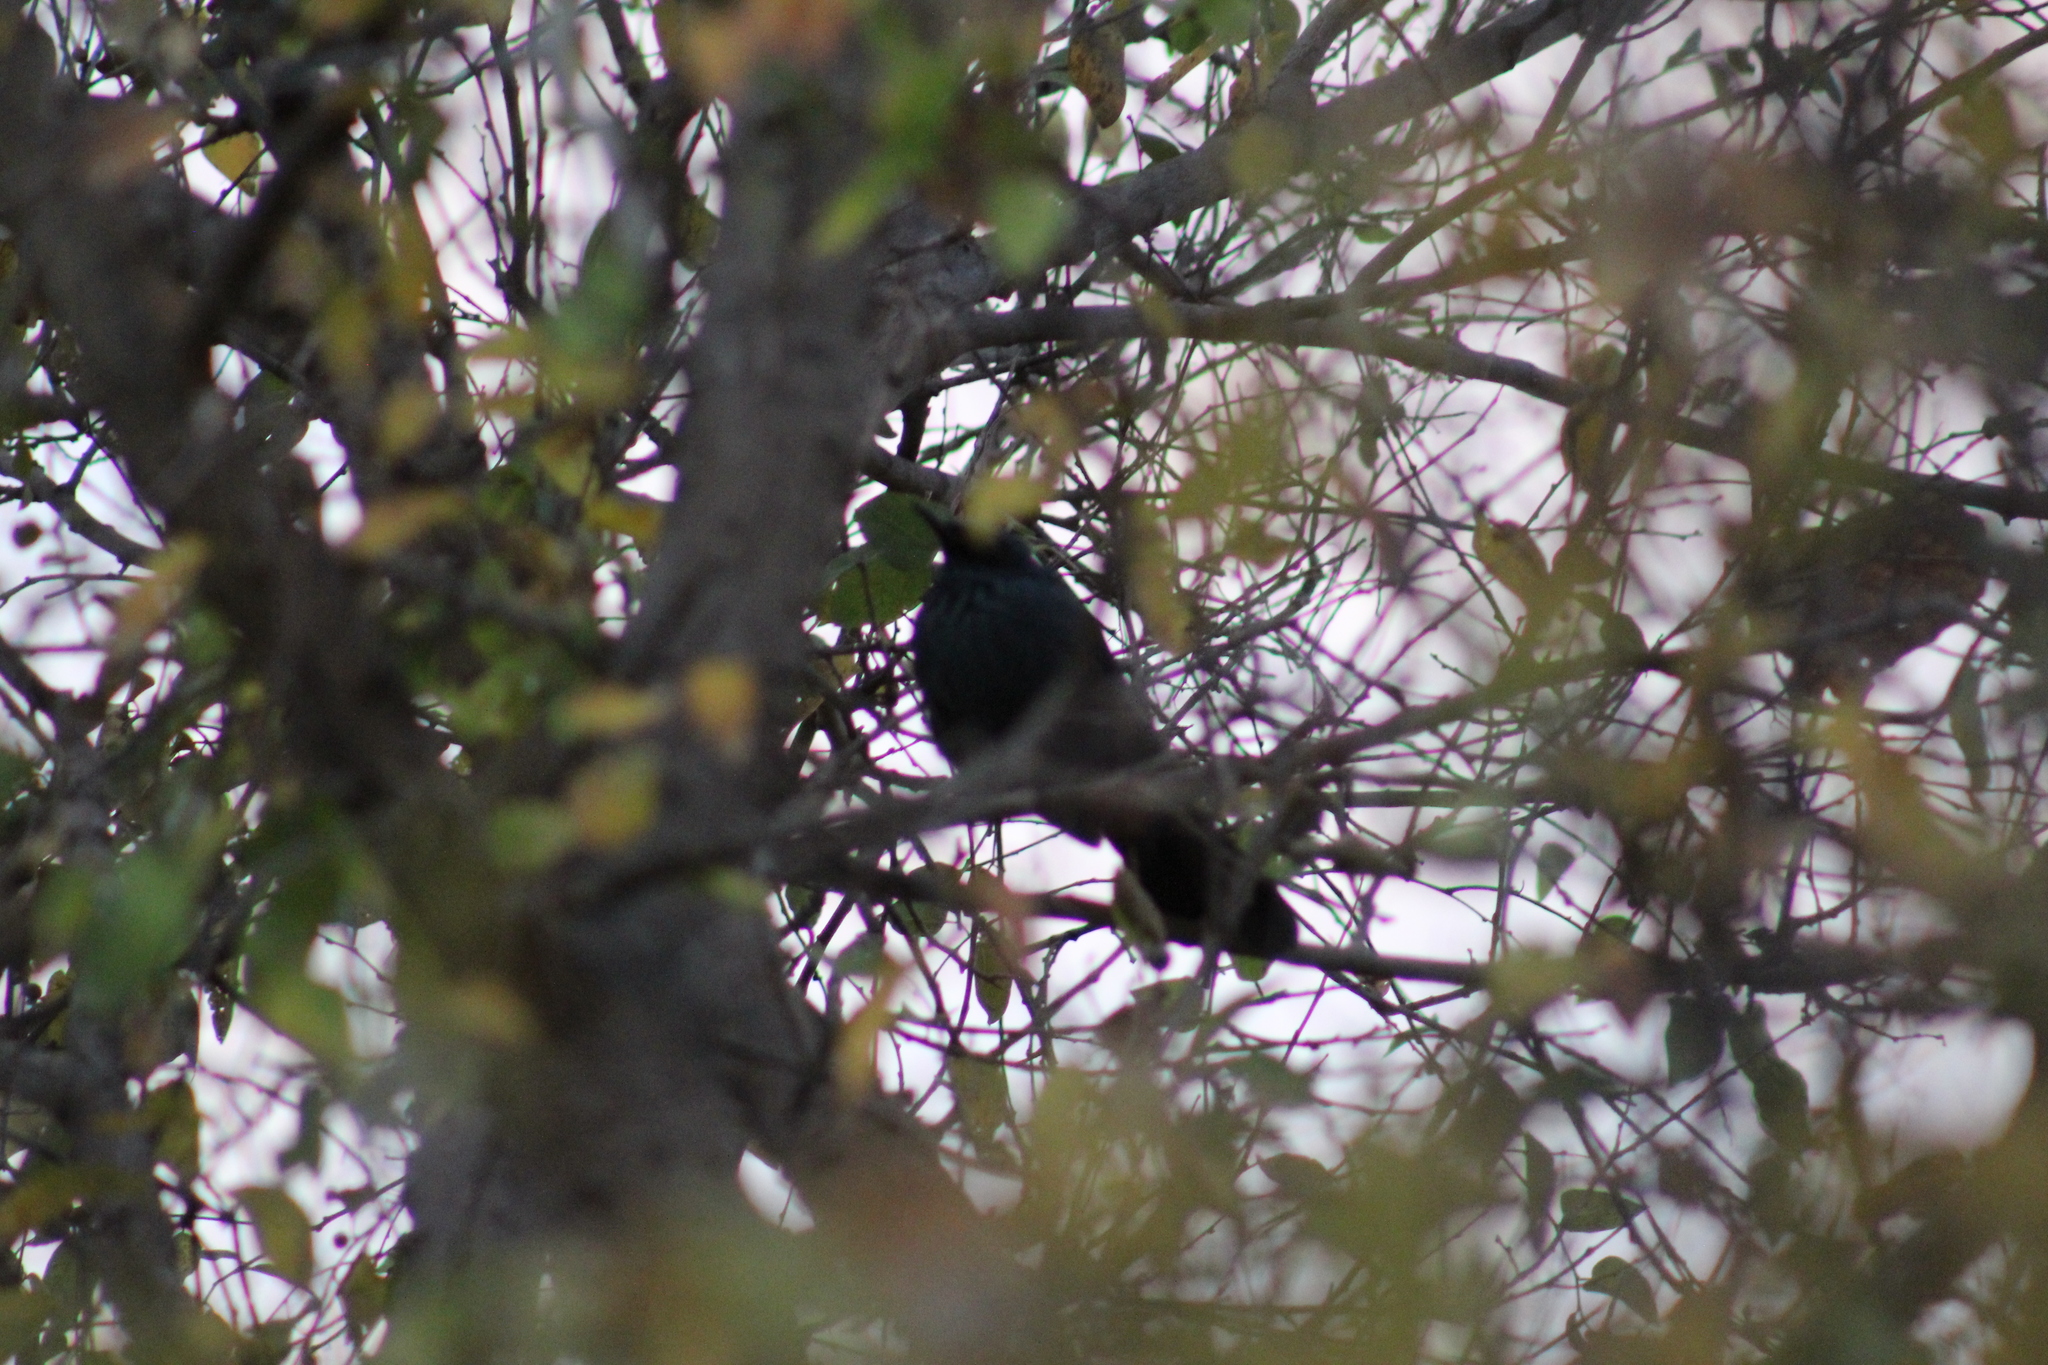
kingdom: Animalia
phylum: Chordata
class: Aves
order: Passeriformes
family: Mimidae
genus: Melanotis
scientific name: Melanotis caerulescens
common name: Blue mockingbird
